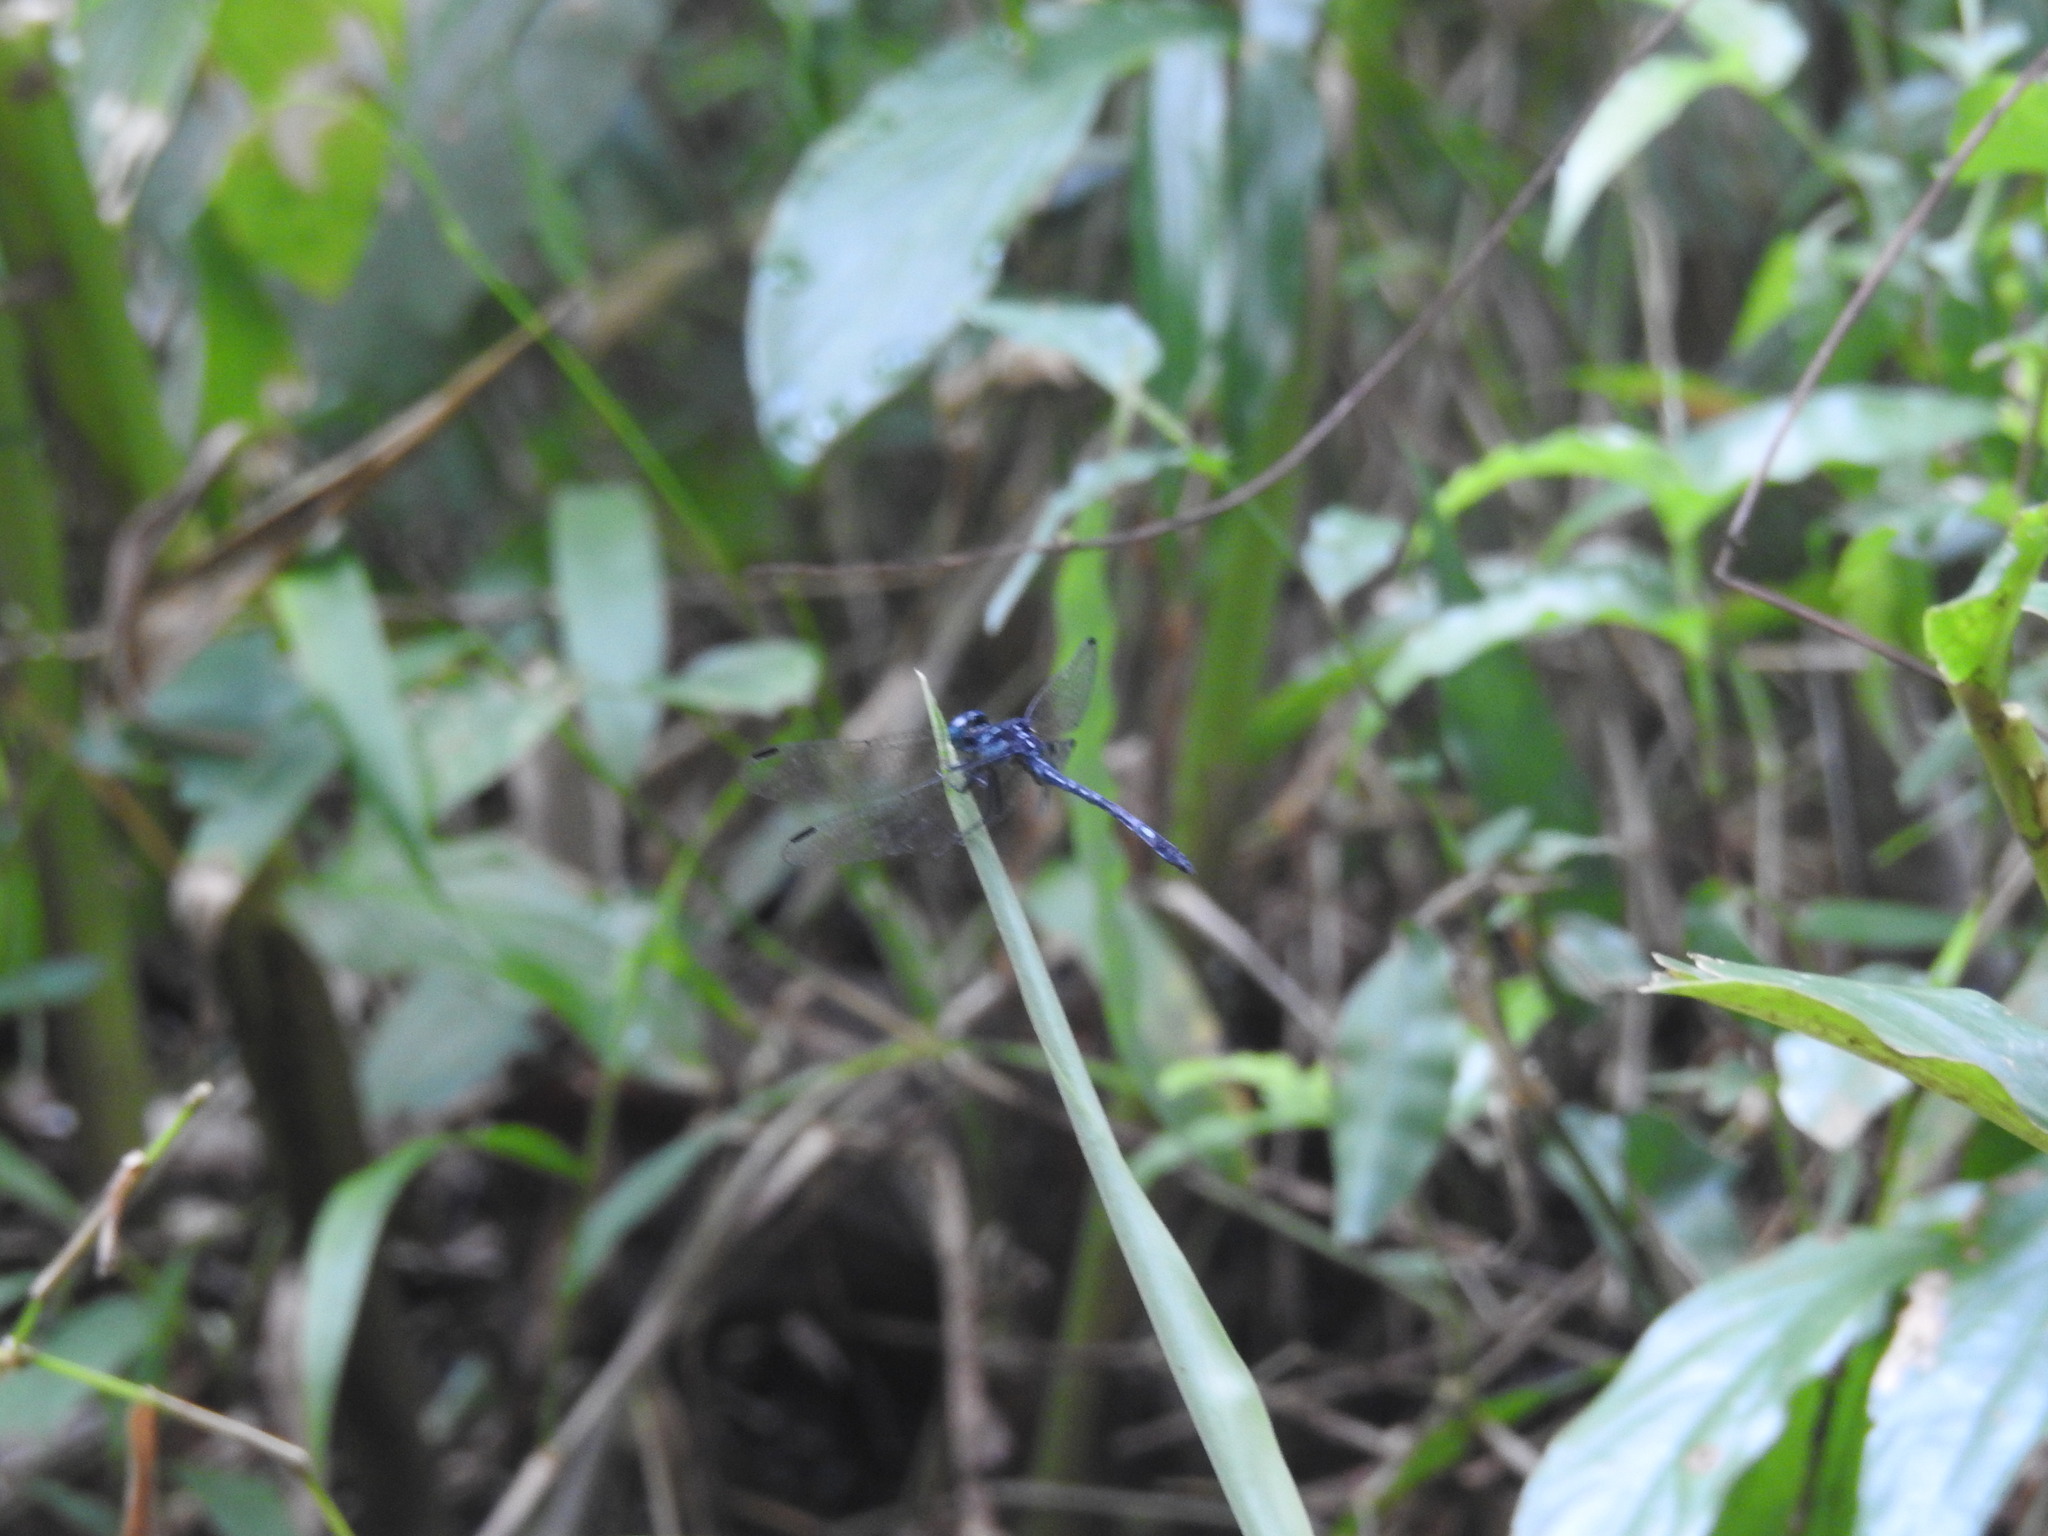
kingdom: Animalia
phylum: Arthropoda
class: Insecta
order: Odonata
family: Libellulidae
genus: Hylaeothemis
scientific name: Hylaeothemis apicalis
